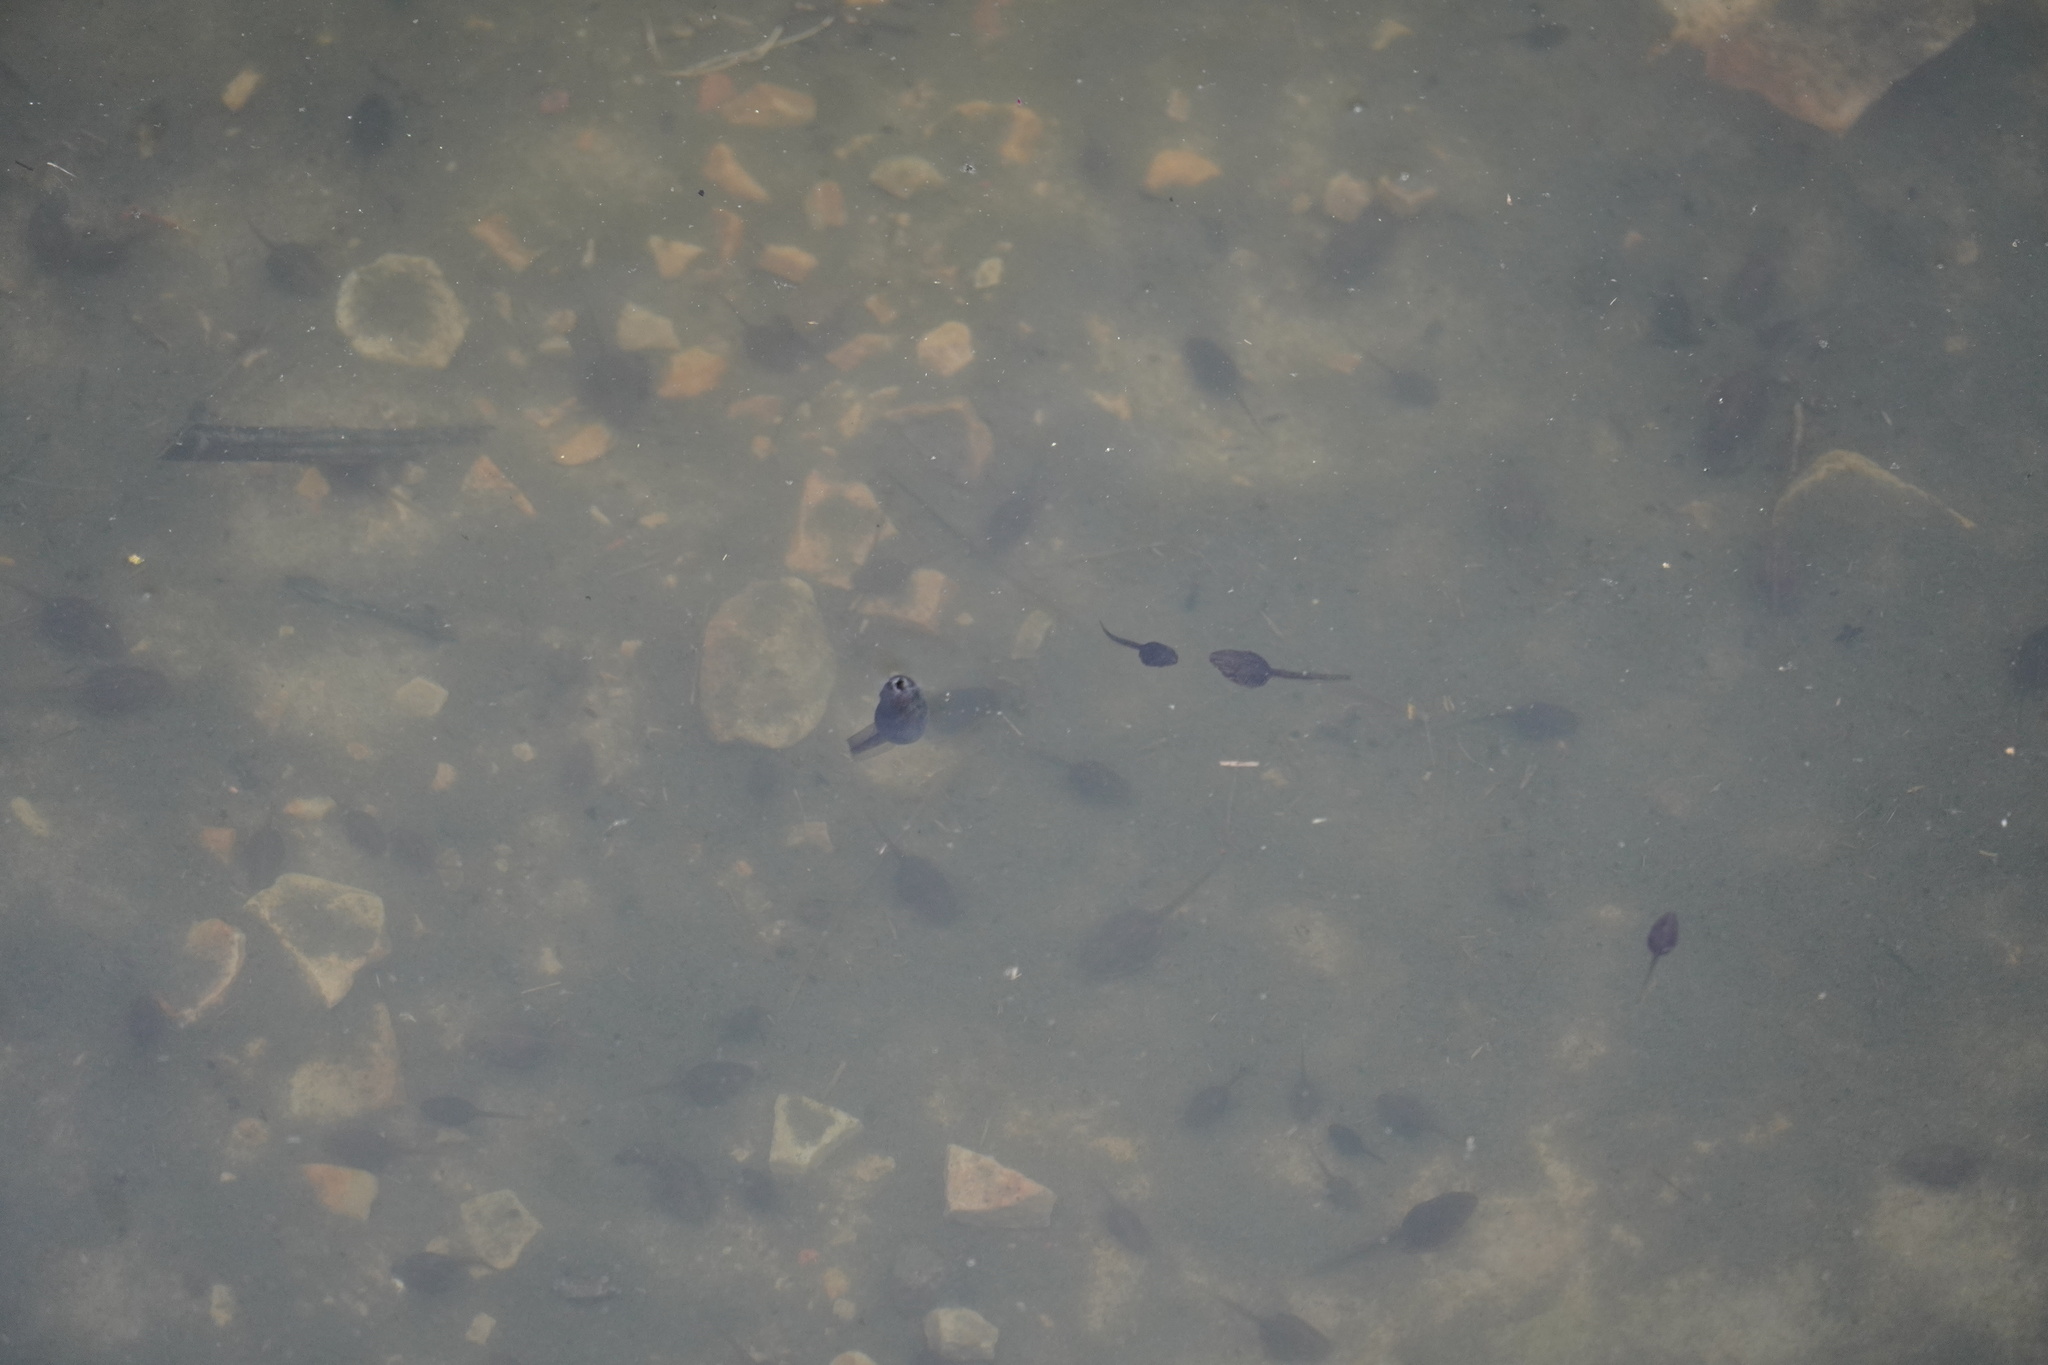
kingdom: Animalia
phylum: Chordata
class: Amphibia
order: Anura
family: Pyxicephalidae
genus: Amietia
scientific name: Amietia delalandii
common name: Delalande's river frog
